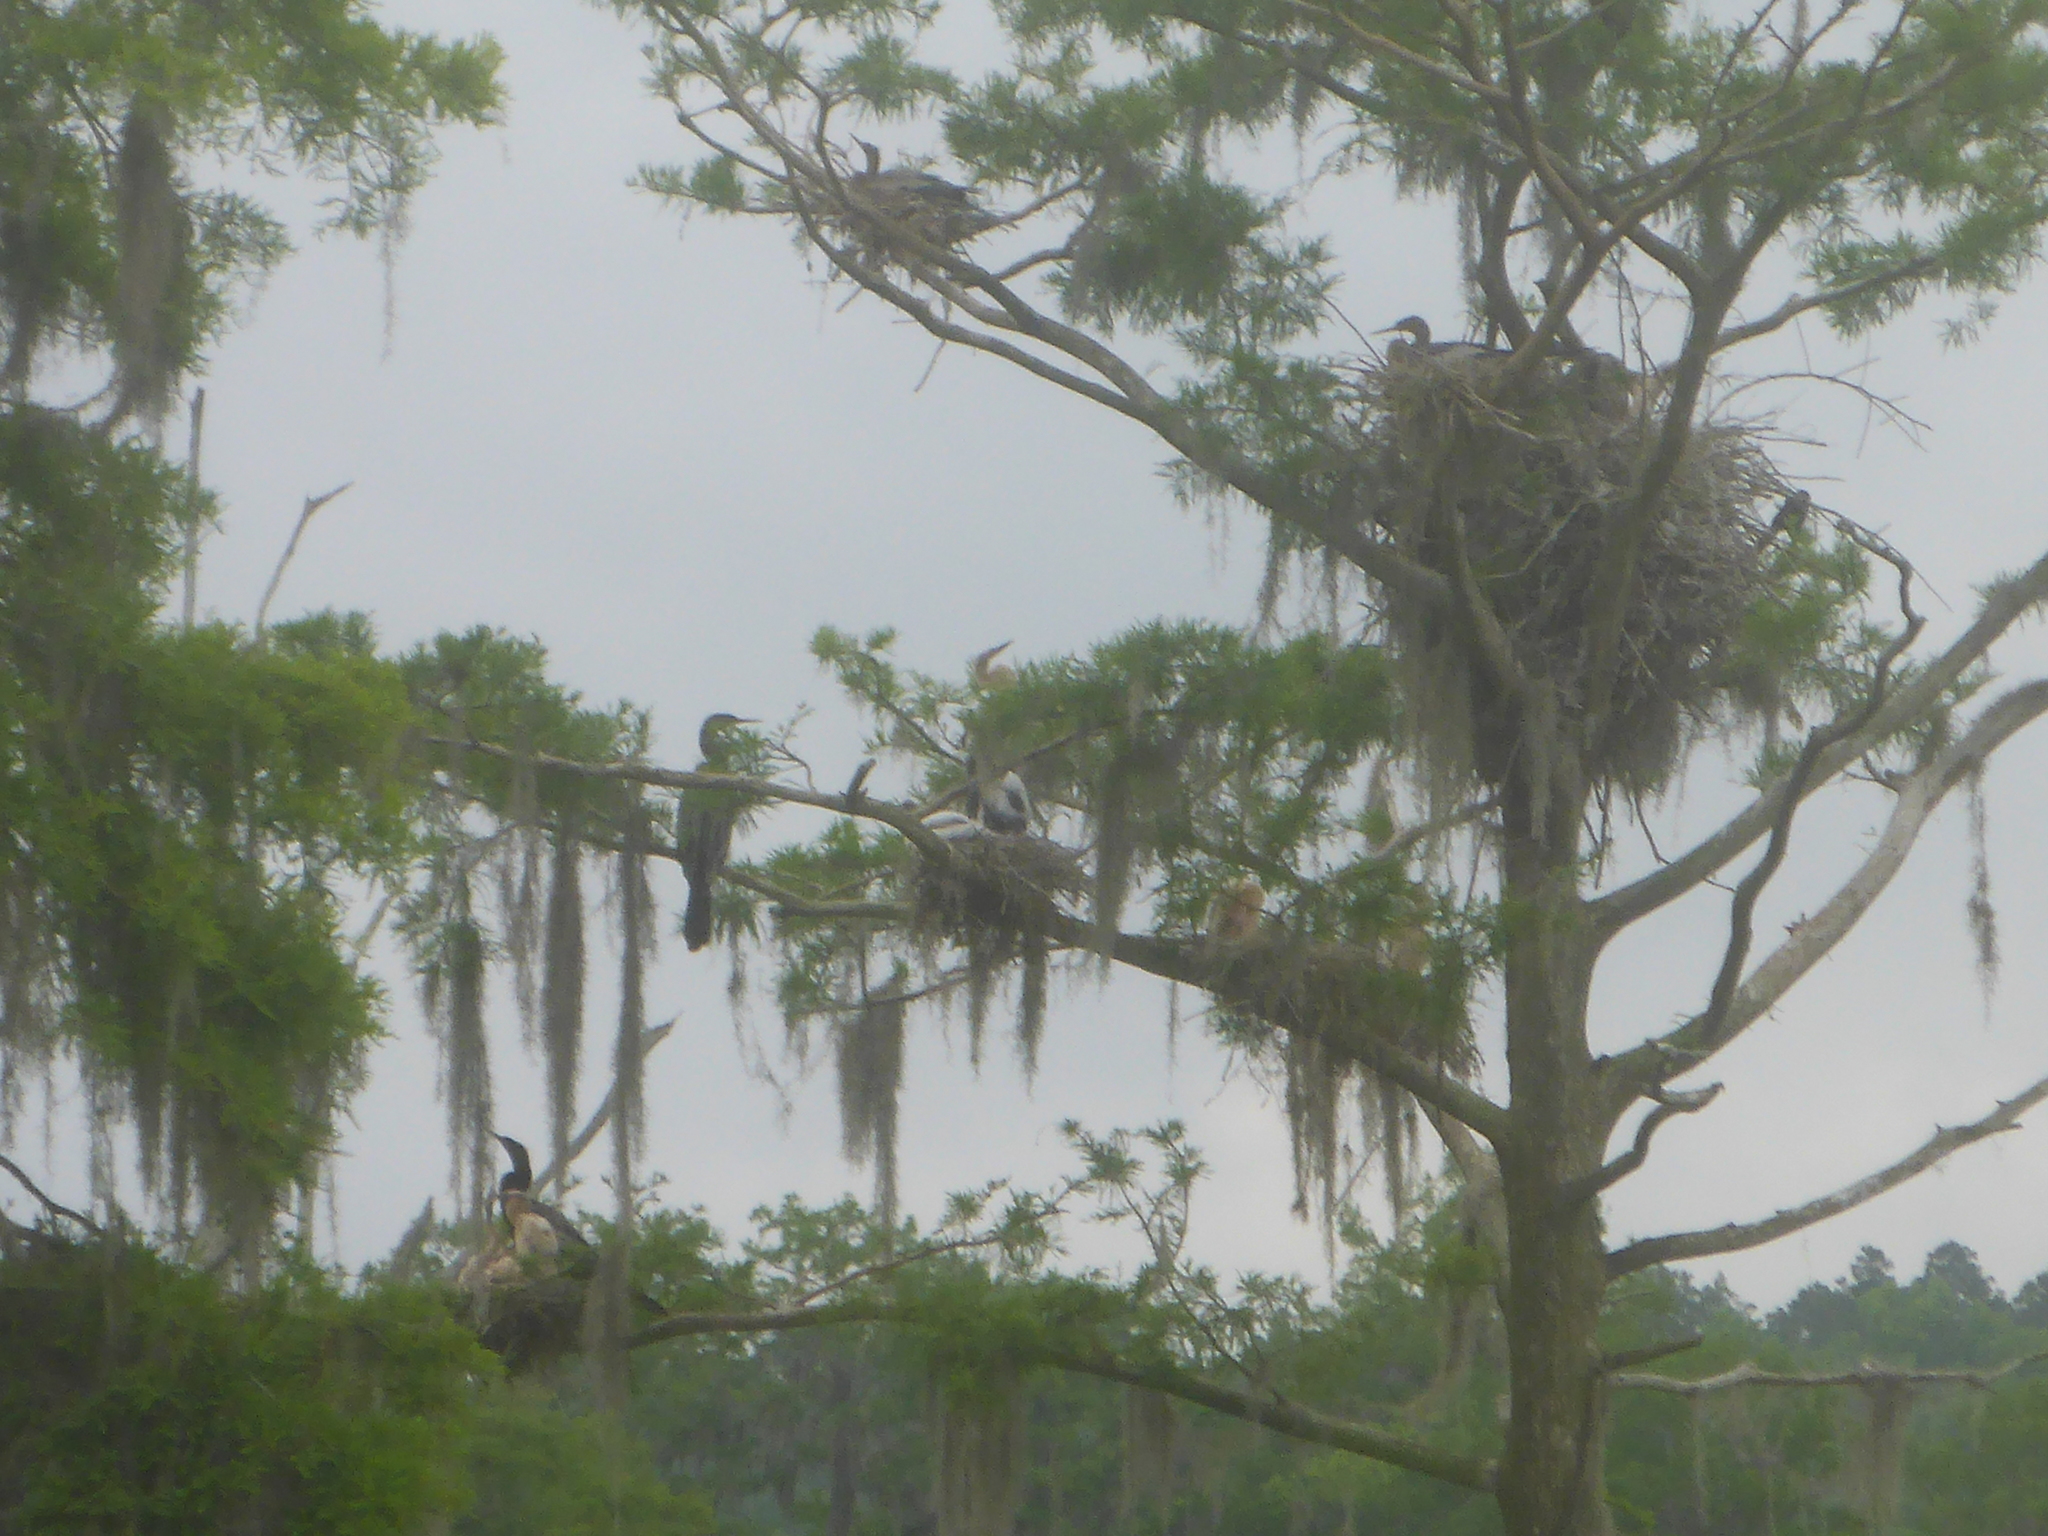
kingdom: Animalia
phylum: Chordata
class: Aves
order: Suliformes
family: Anhingidae
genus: Anhinga
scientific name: Anhinga anhinga
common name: Anhinga
